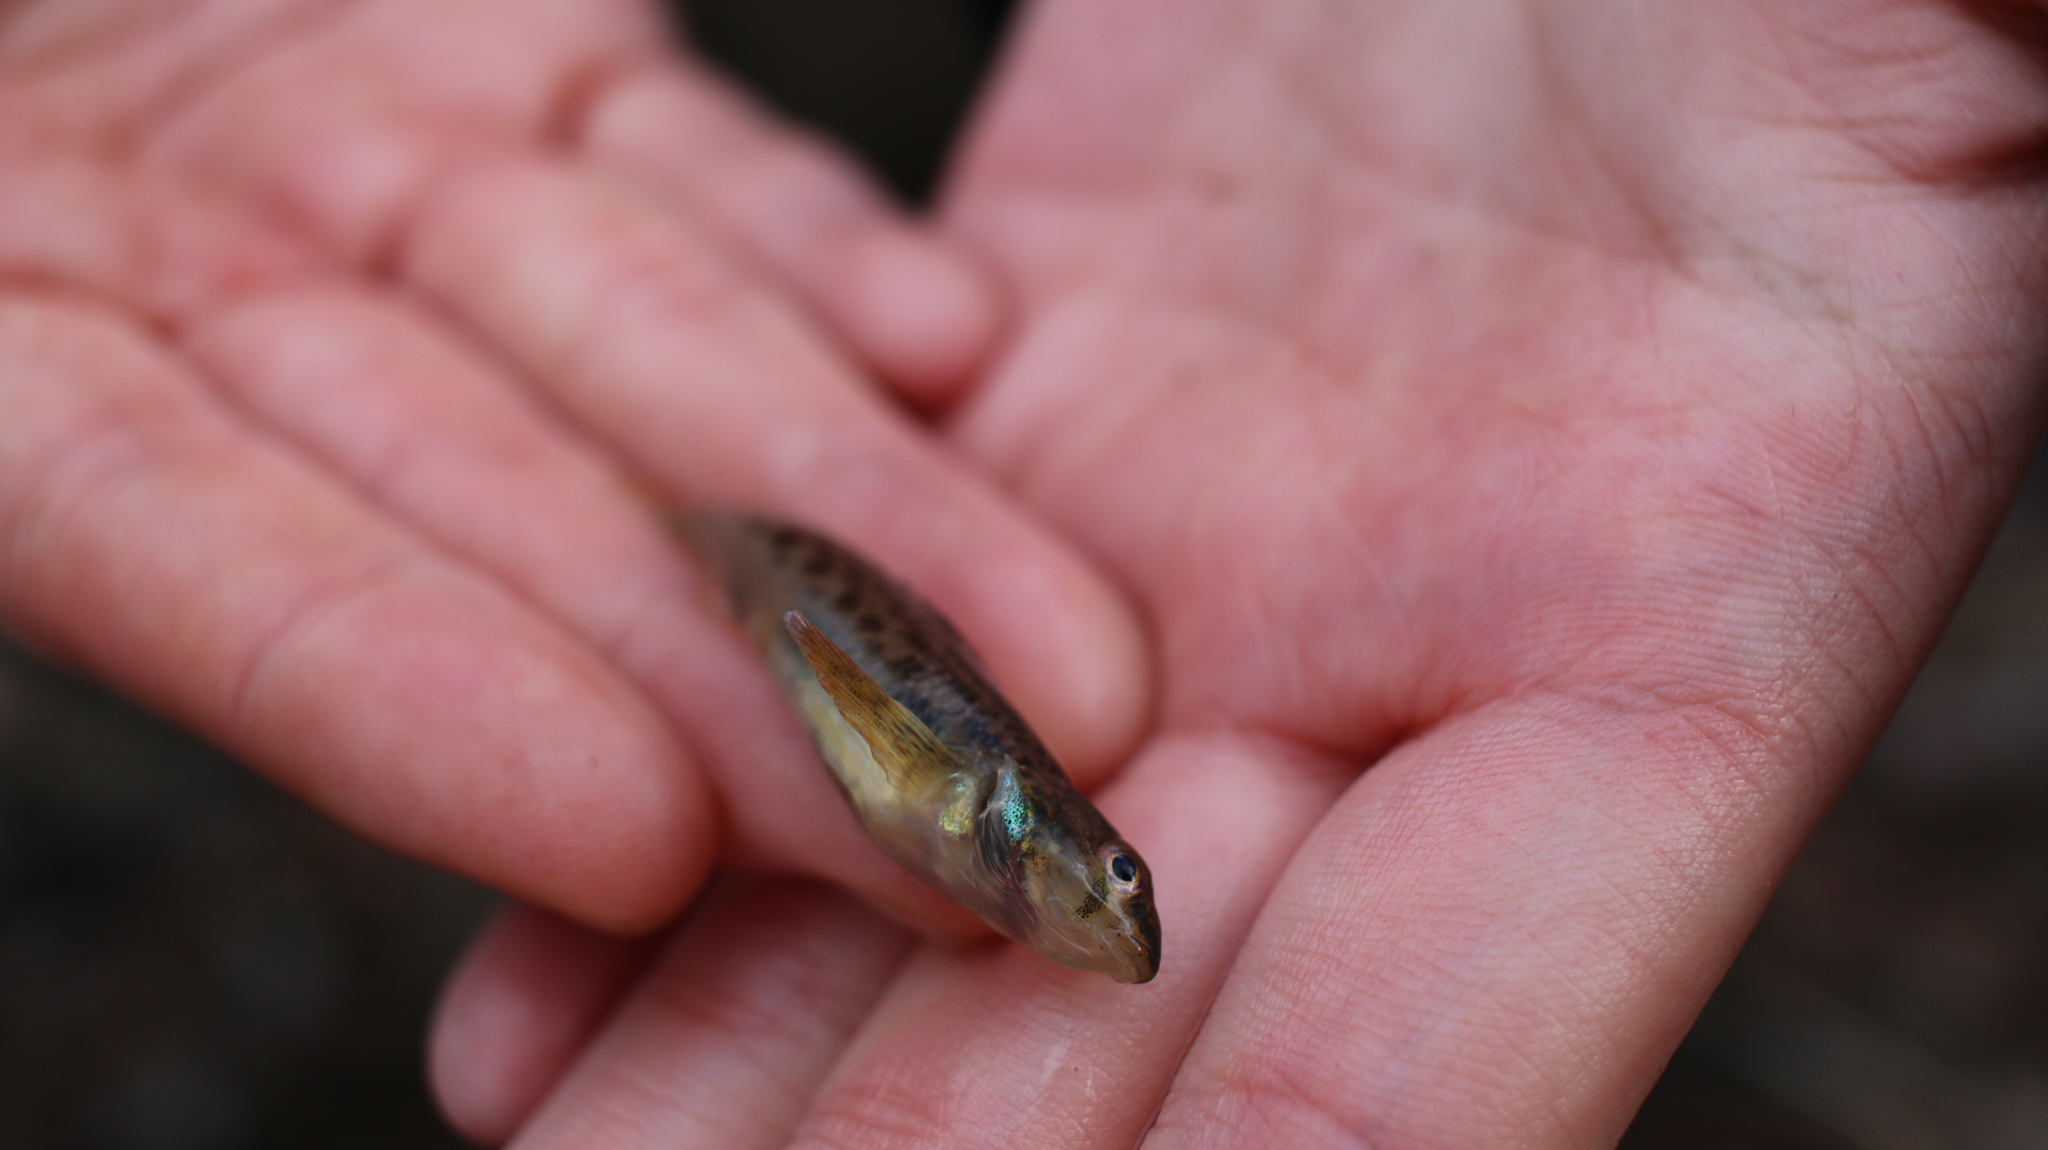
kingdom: Animalia
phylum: Chordata
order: Perciformes
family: Percidae
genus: Etheostoma
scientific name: Etheostoma olmstedi
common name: Tessellated darter
